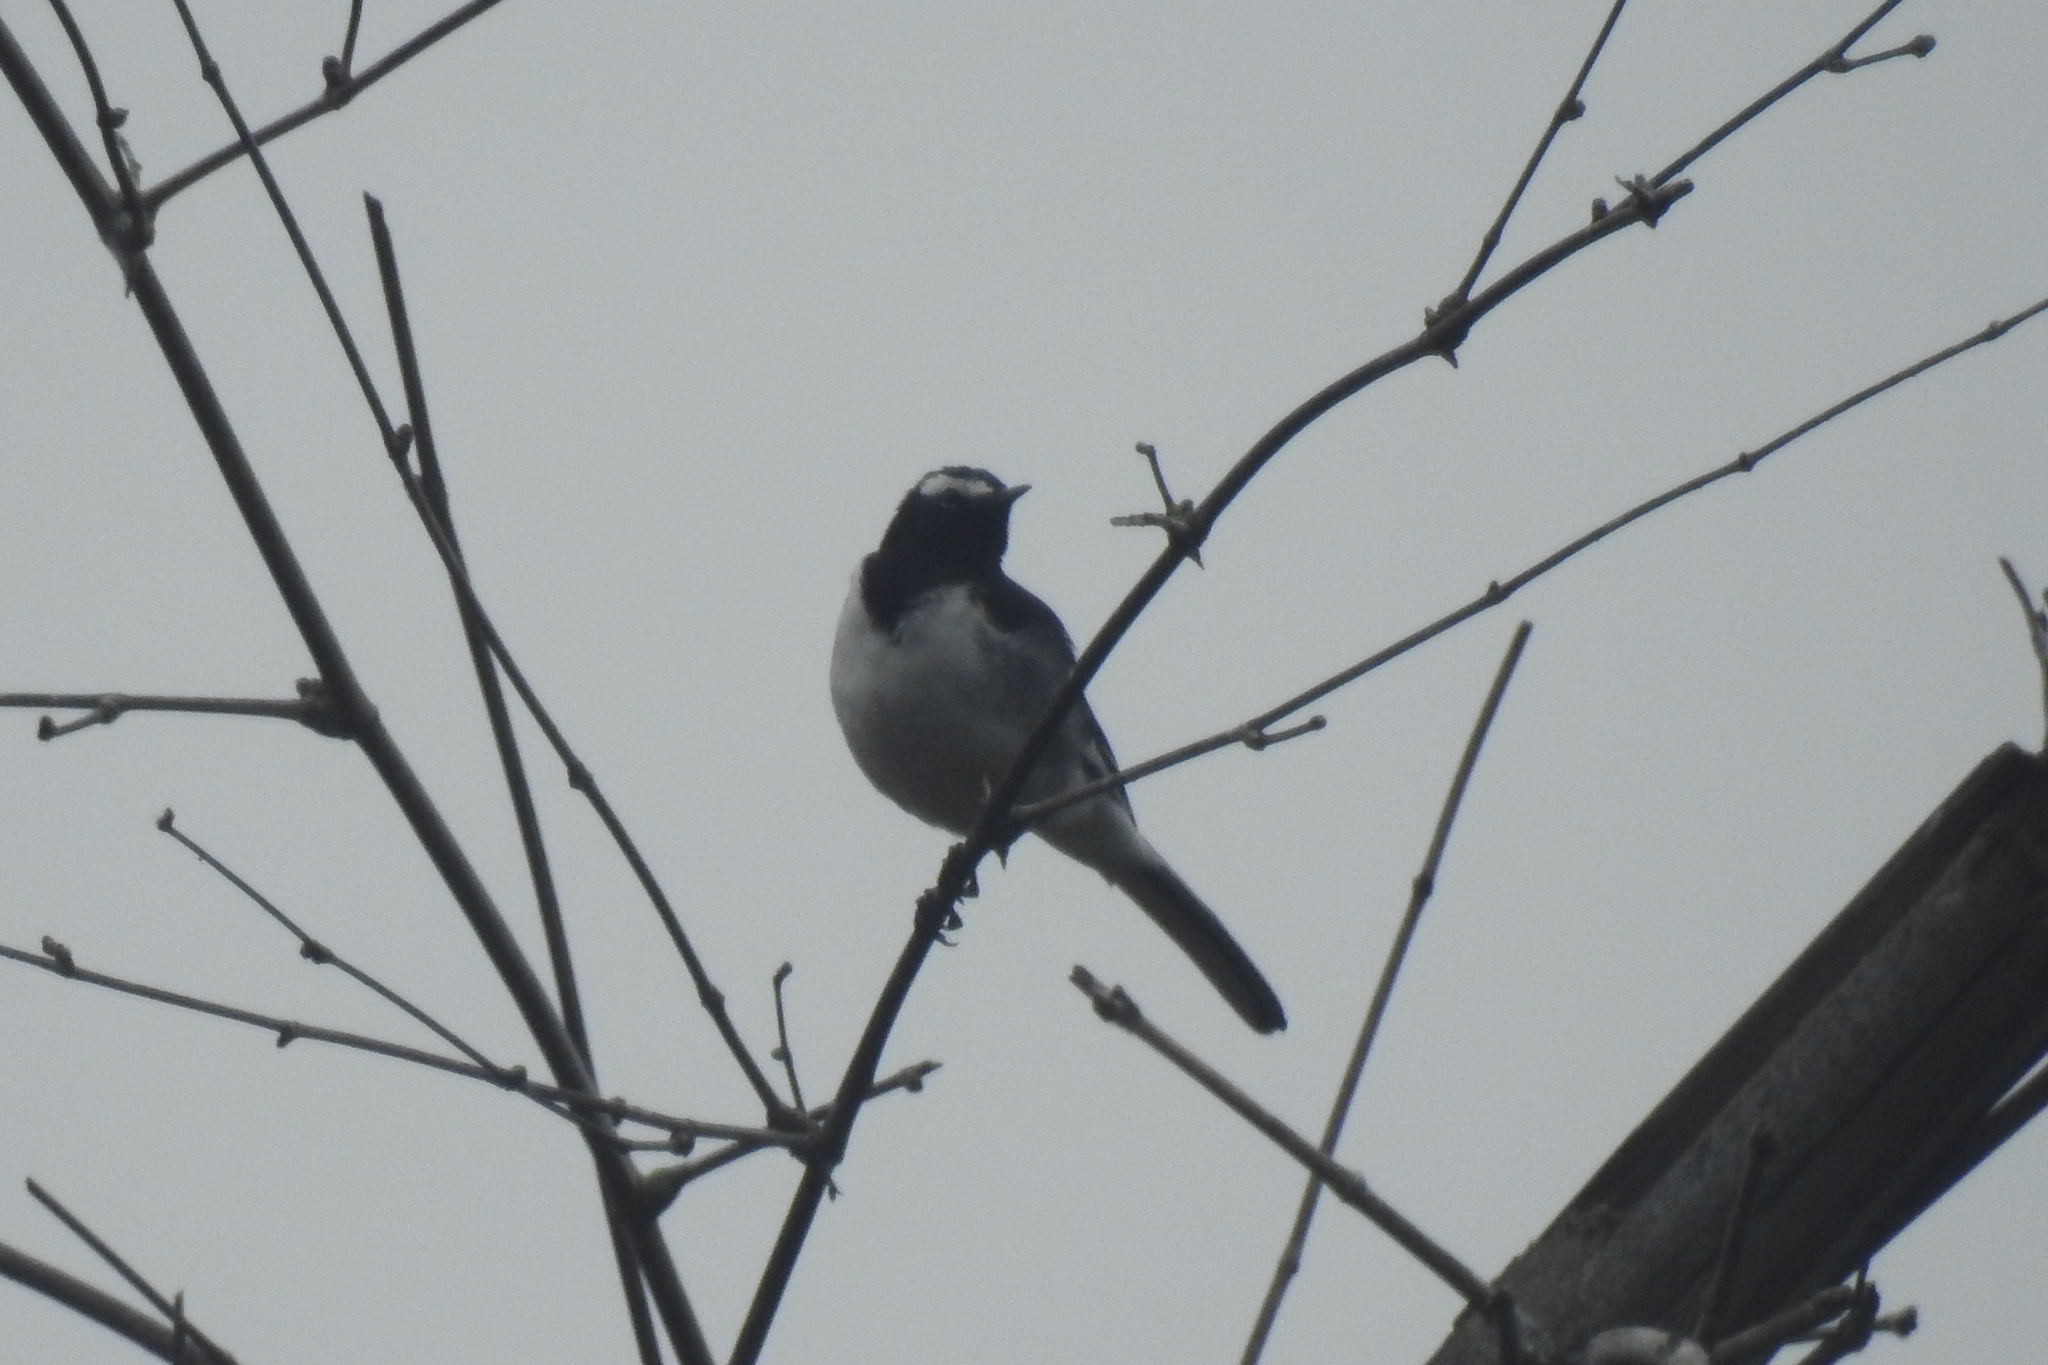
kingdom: Animalia
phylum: Chordata
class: Aves
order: Passeriformes
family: Motacillidae
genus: Motacilla
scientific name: Motacilla maderaspatensis
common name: White-browed wagtail
